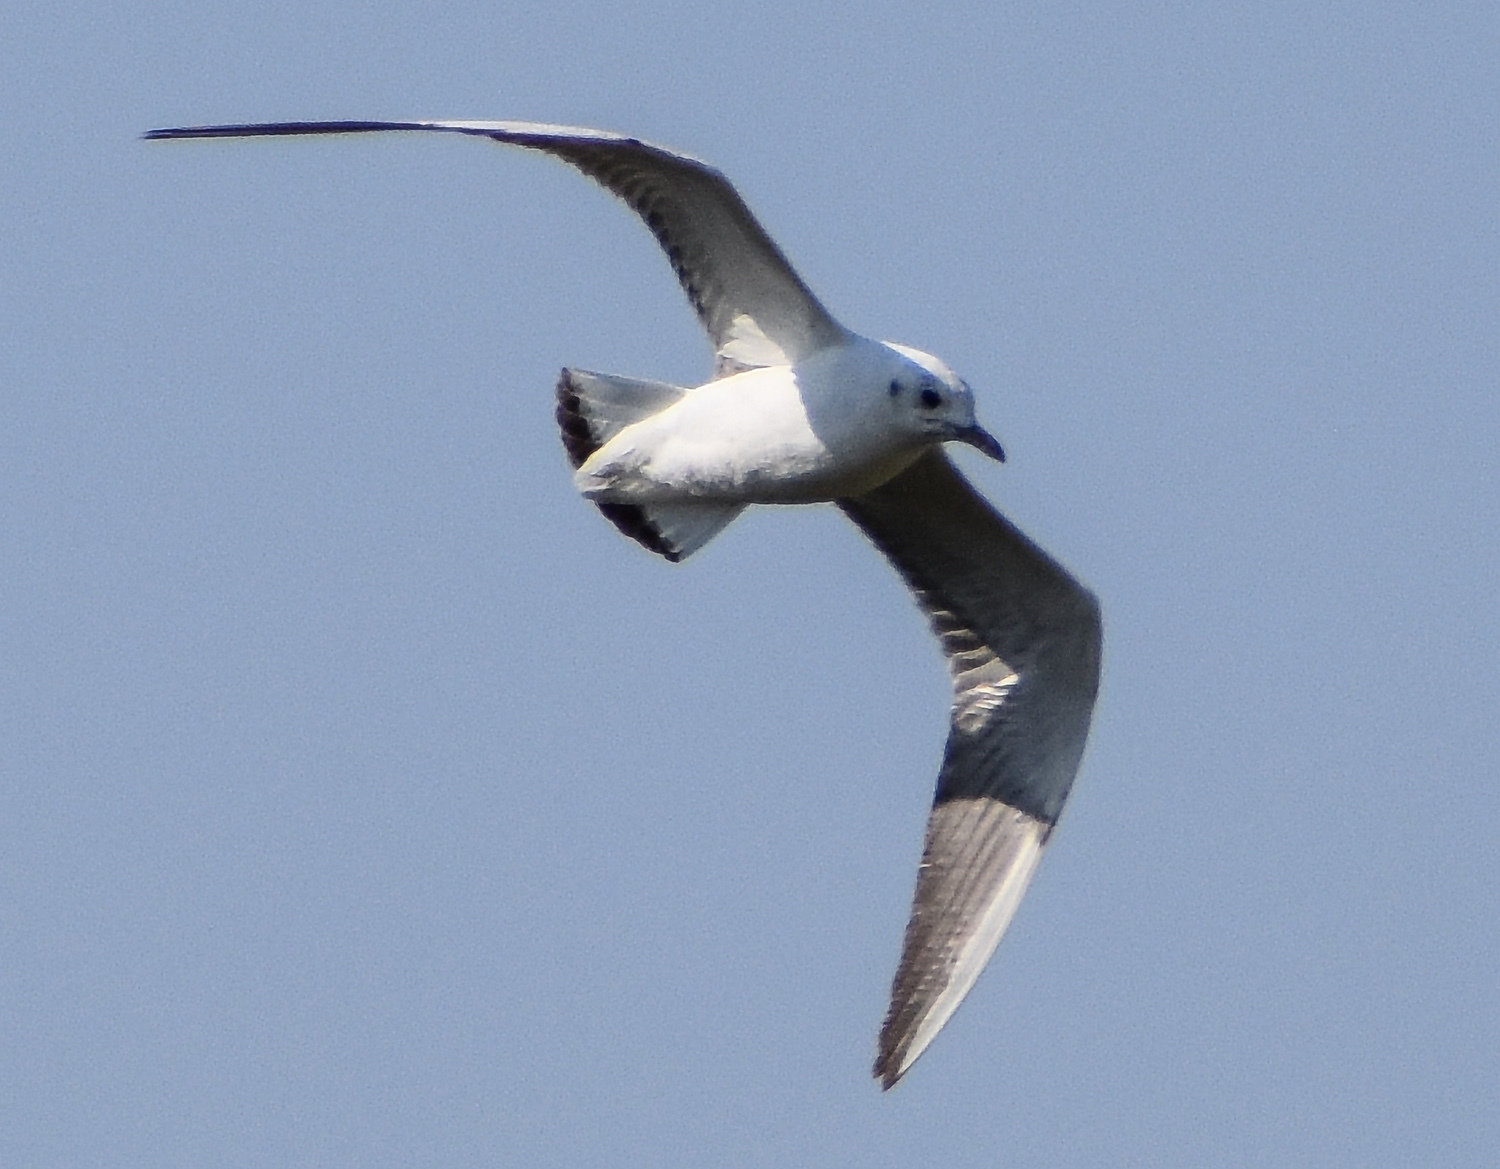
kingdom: Animalia
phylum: Chordata
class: Aves
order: Charadriiformes
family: Laridae
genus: Chroicocephalus
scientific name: Chroicocephalus ridibundus
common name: Black-headed gull
